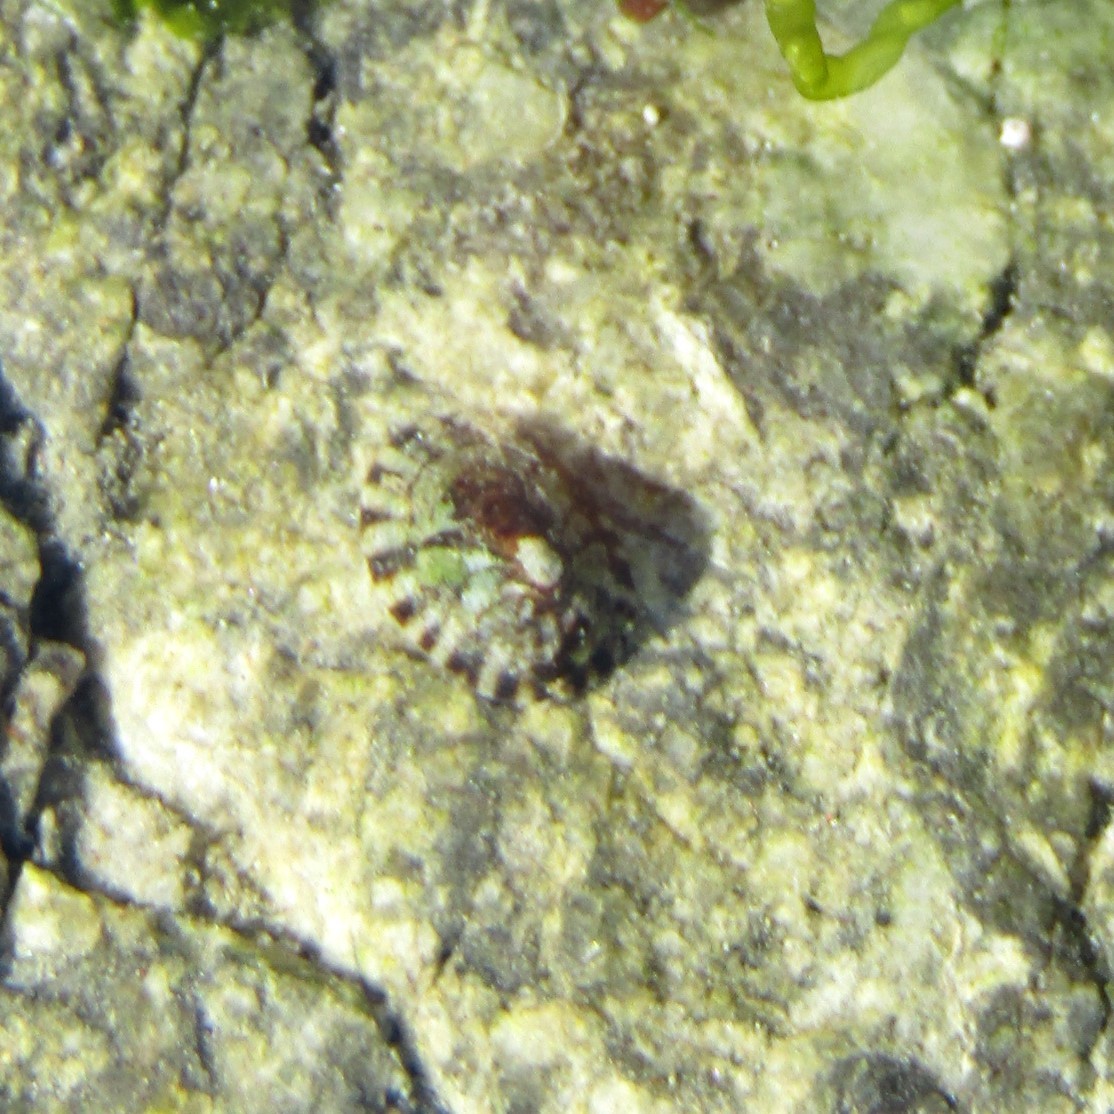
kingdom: Animalia
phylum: Mollusca
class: Gastropoda
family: Lottiidae
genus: Notoacmea
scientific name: Notoacmea parviconoidea
